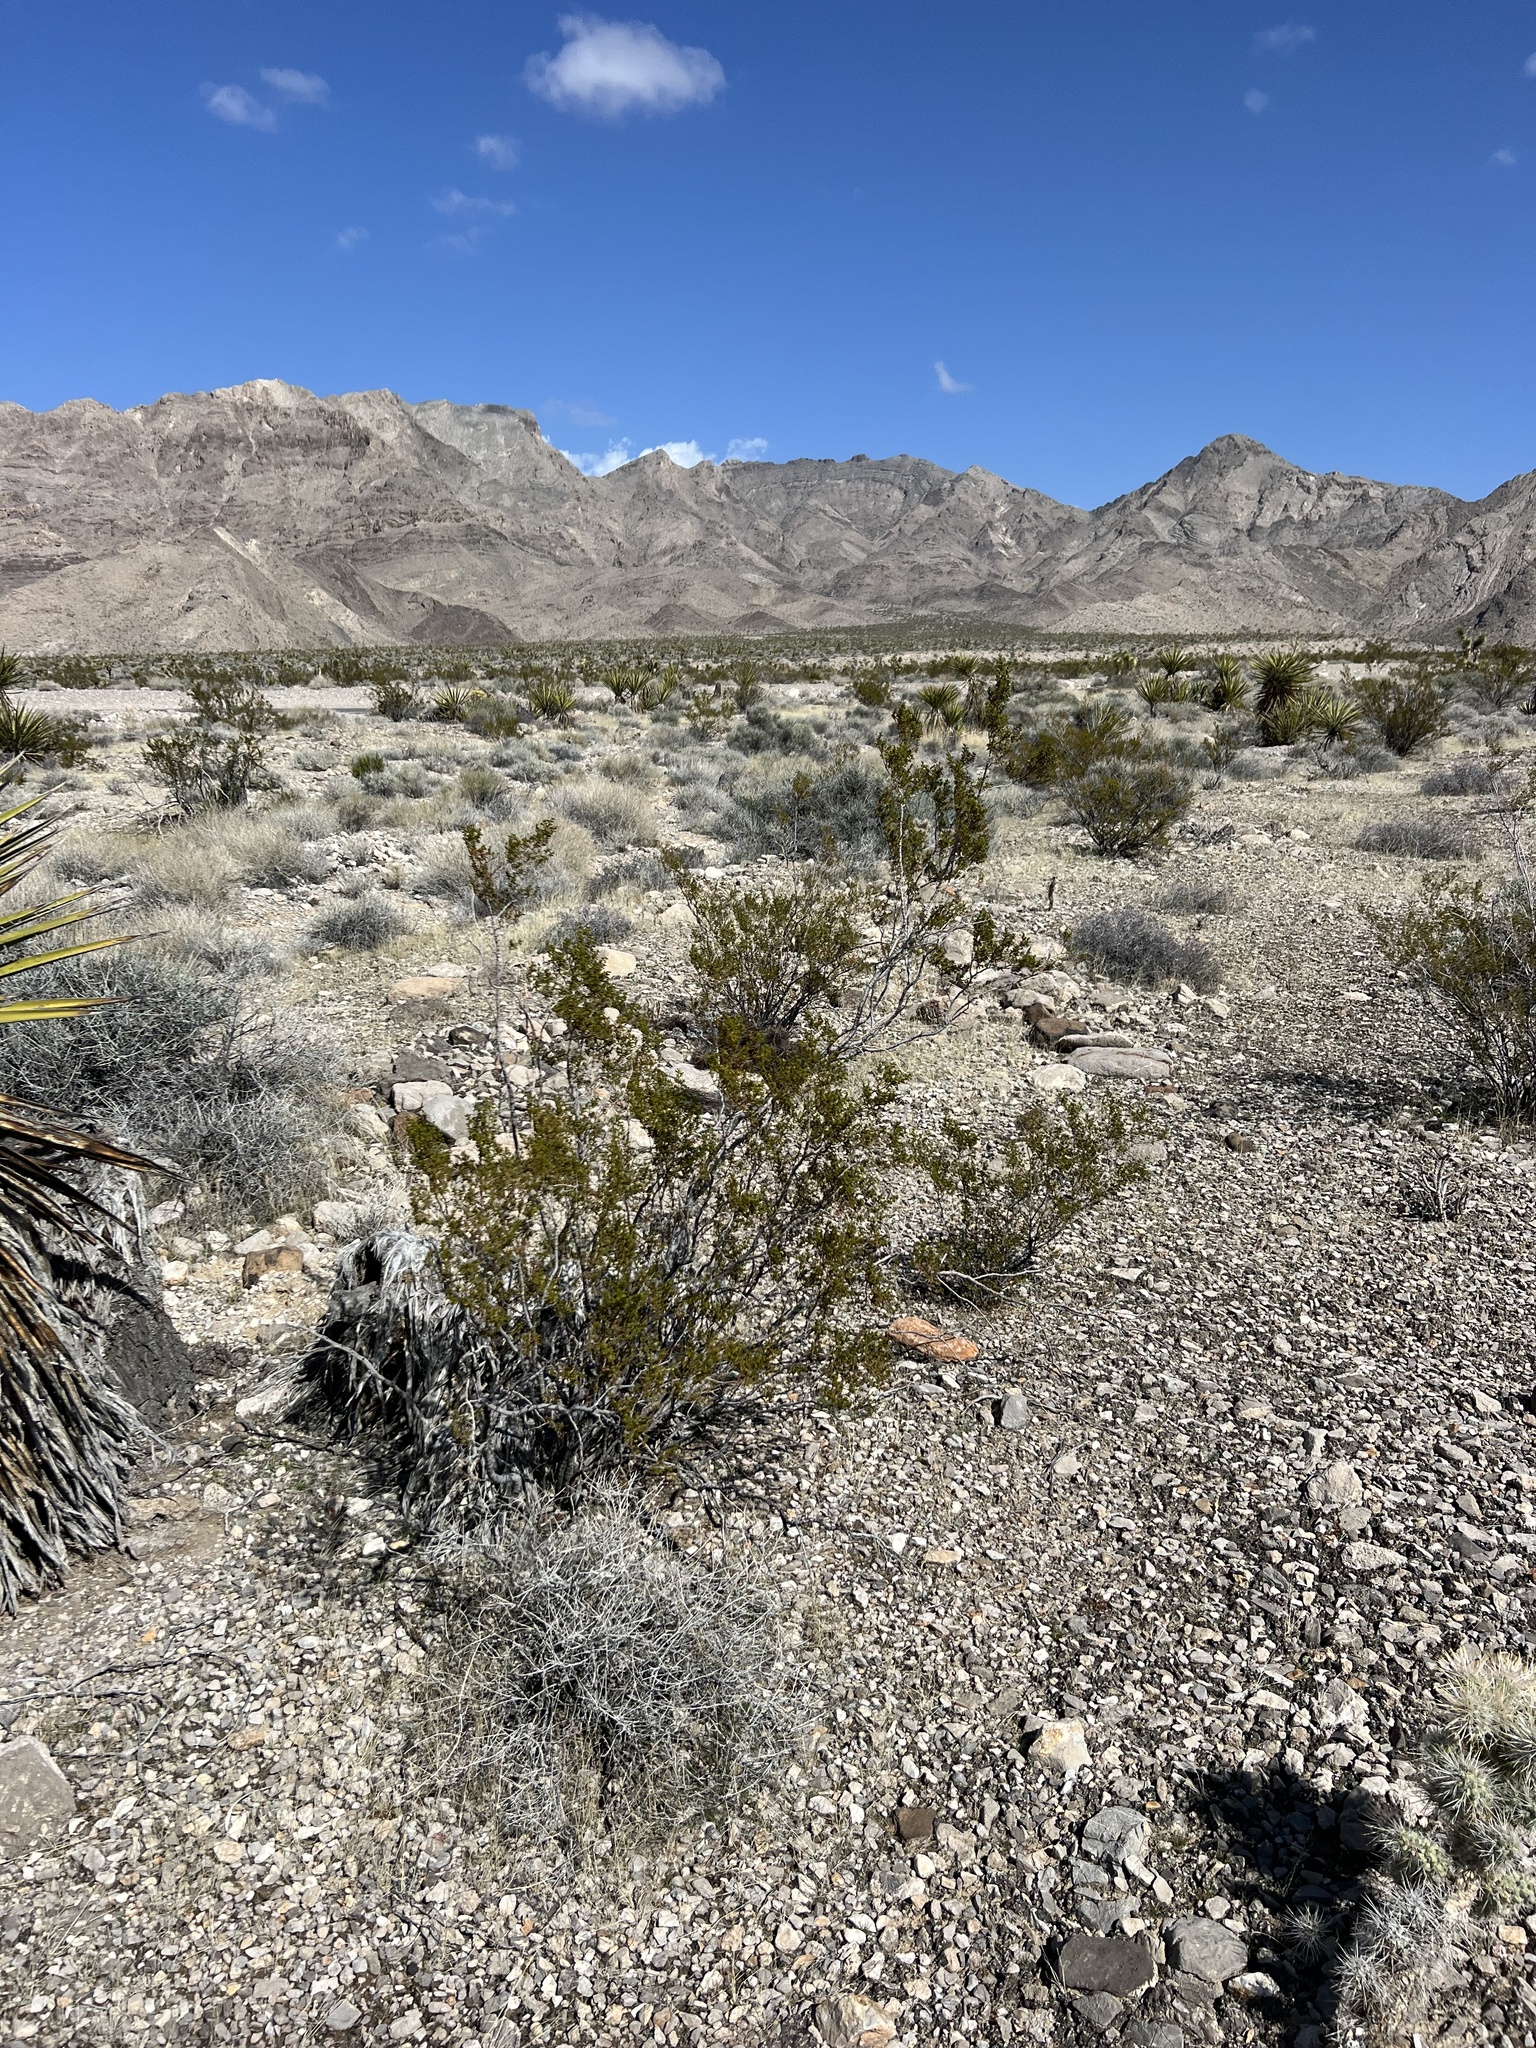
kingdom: Plantae
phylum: Tracheophyta
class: Magnoliopsida
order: Zygophyllales
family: Zygophyllaceae
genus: Larrea
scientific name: Larrea tridentata
